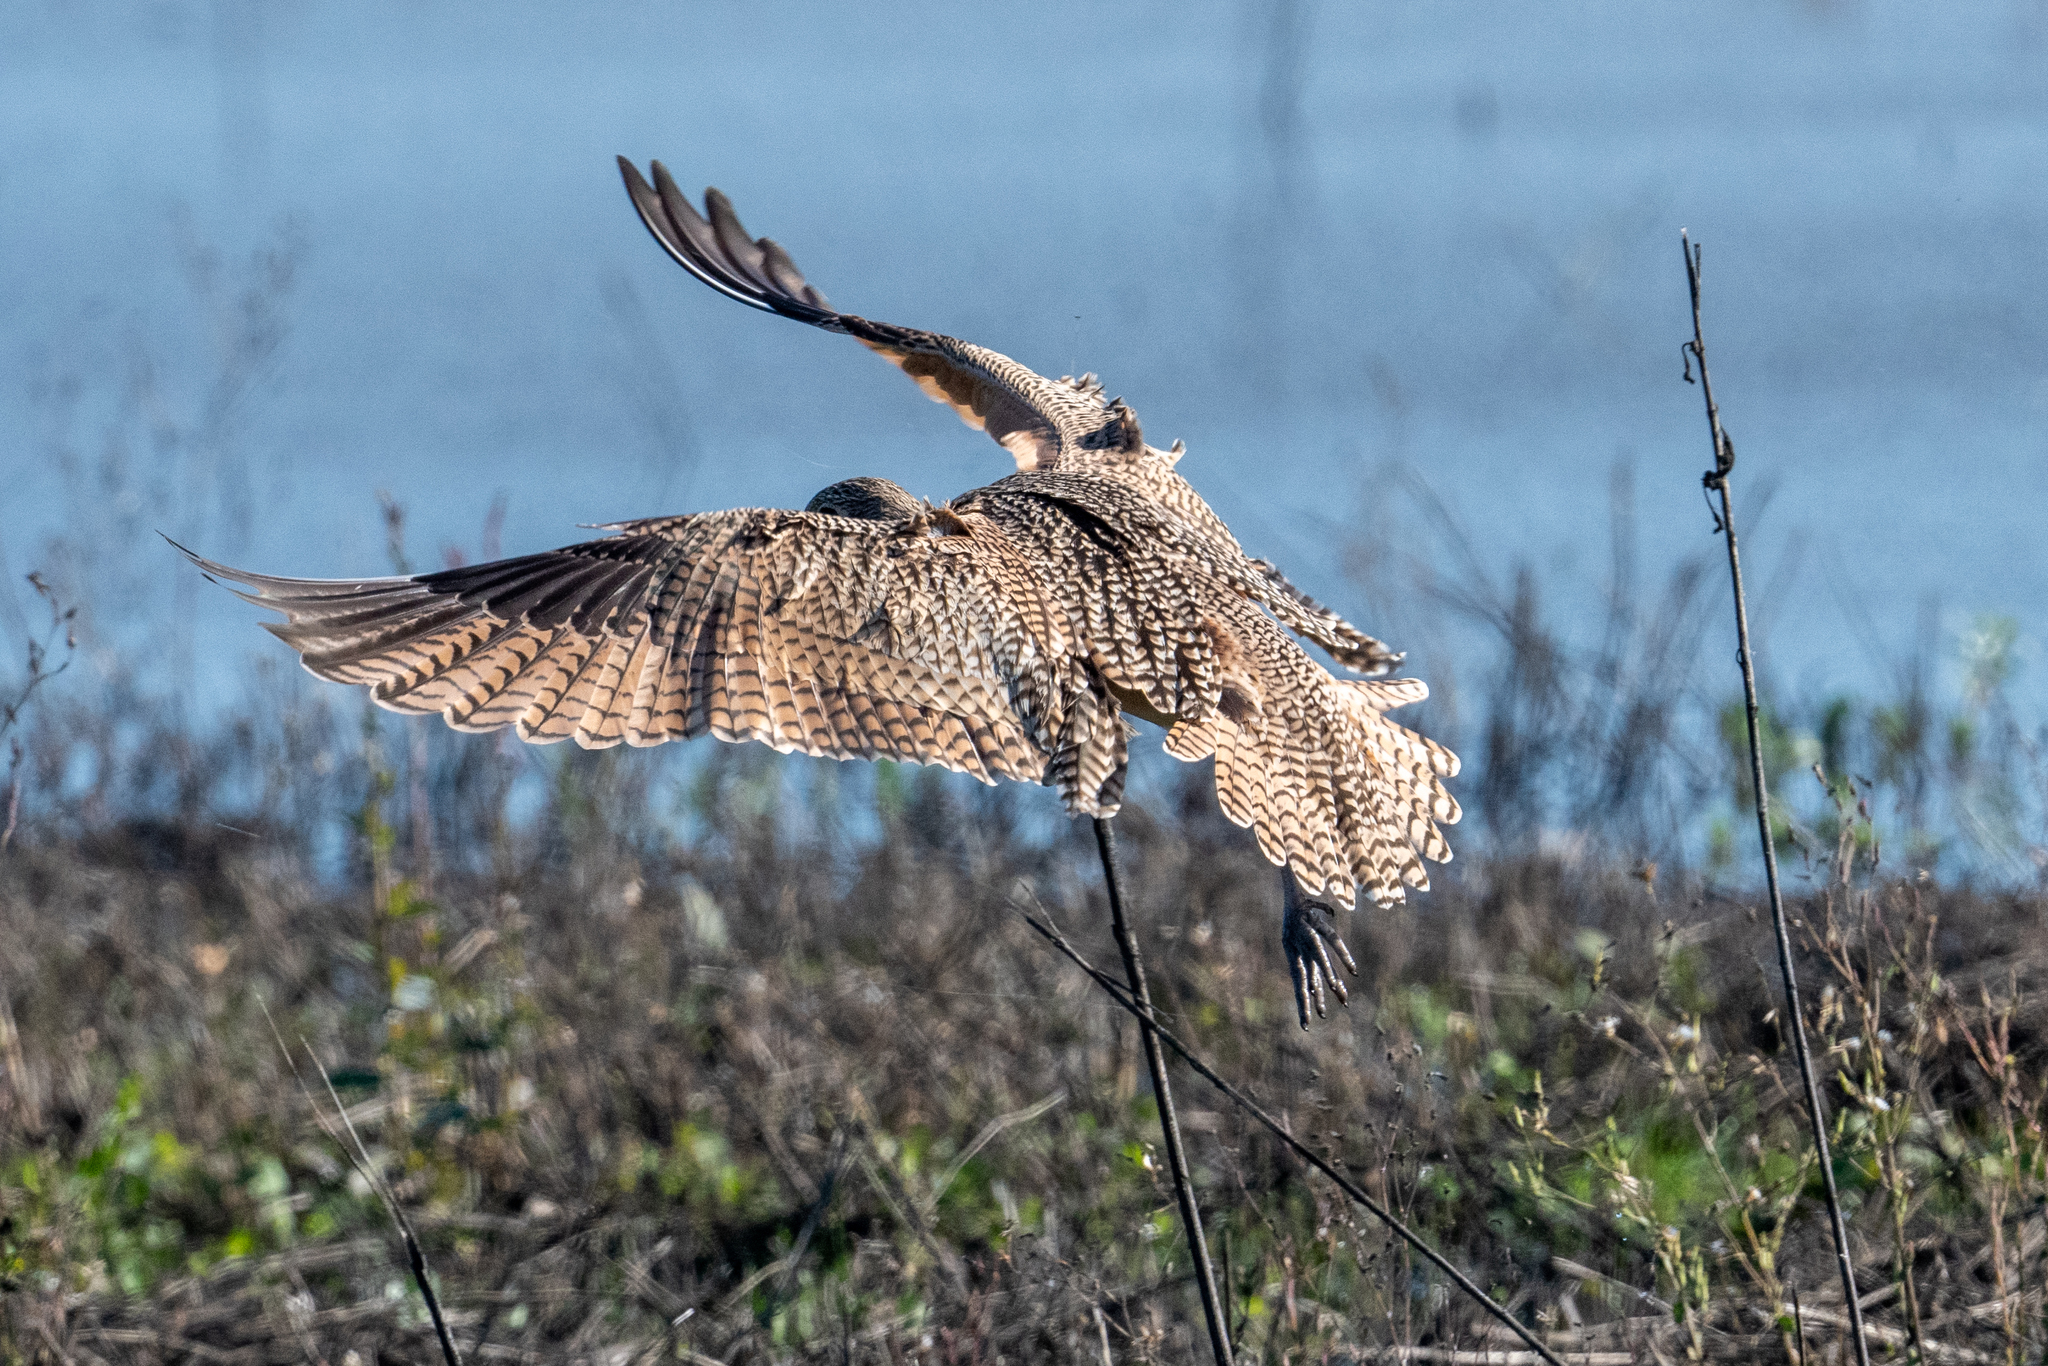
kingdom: Animalia
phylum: Chordata
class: Aves
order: Charadriiformes
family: Scolopacidae
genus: Numenius
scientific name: Numenius americanus
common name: Long-billed curlew
